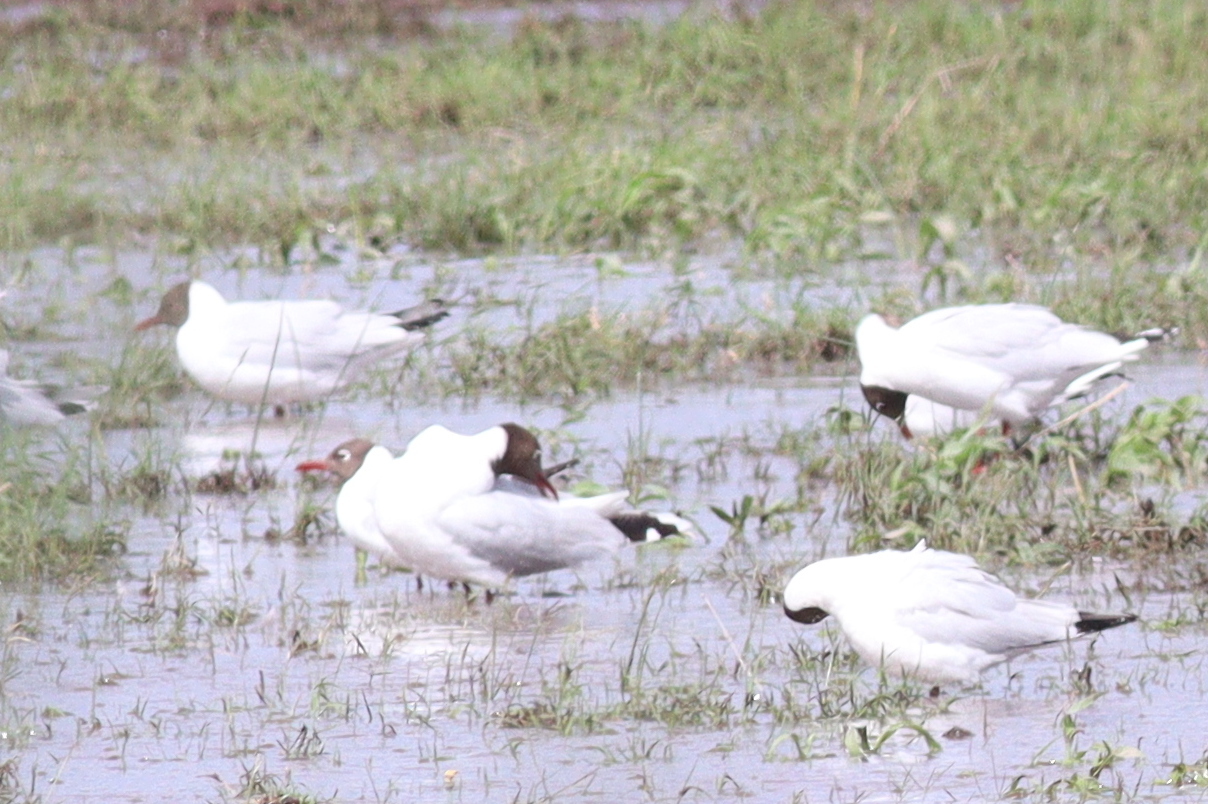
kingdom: Animalia
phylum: Chordata
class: Aves
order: Charadriiformes
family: Laridae
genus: Chroicocephalus
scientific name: Chroicocephalus maculipennis
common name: Brown-hooded gull
